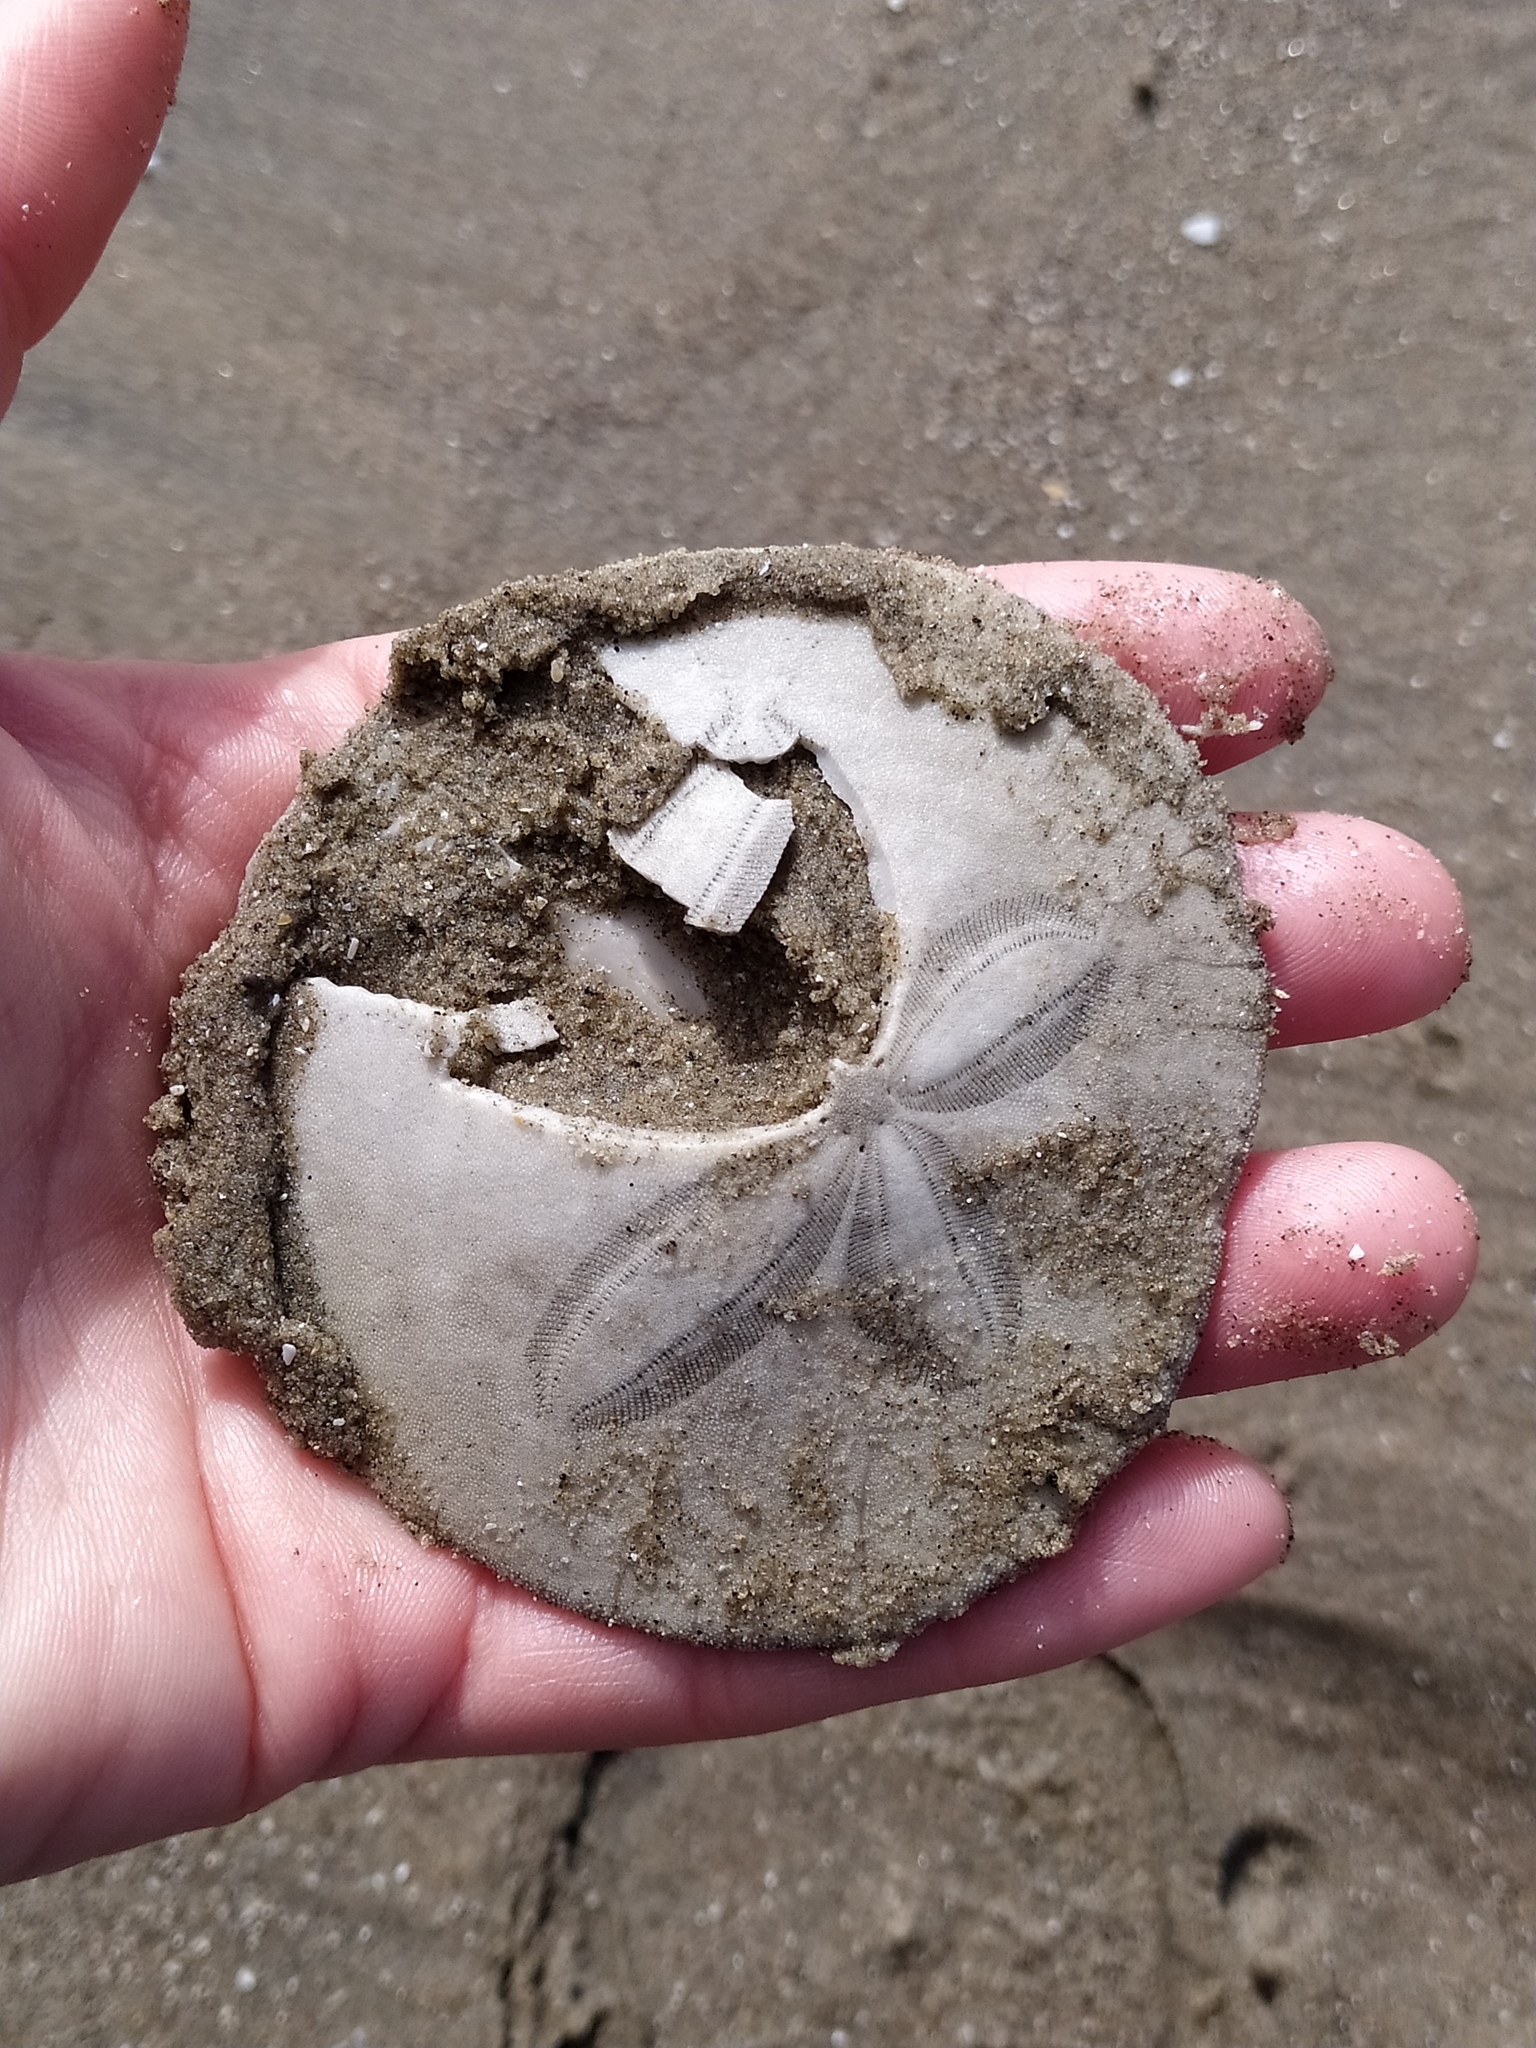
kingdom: Animalia
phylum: Echinodermata
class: Echinoidea
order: Echinolampadacea
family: Dendrasteridae
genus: Dendraster
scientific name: Dendraster excentricus
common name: Eccentric sand dollar sea urchin
